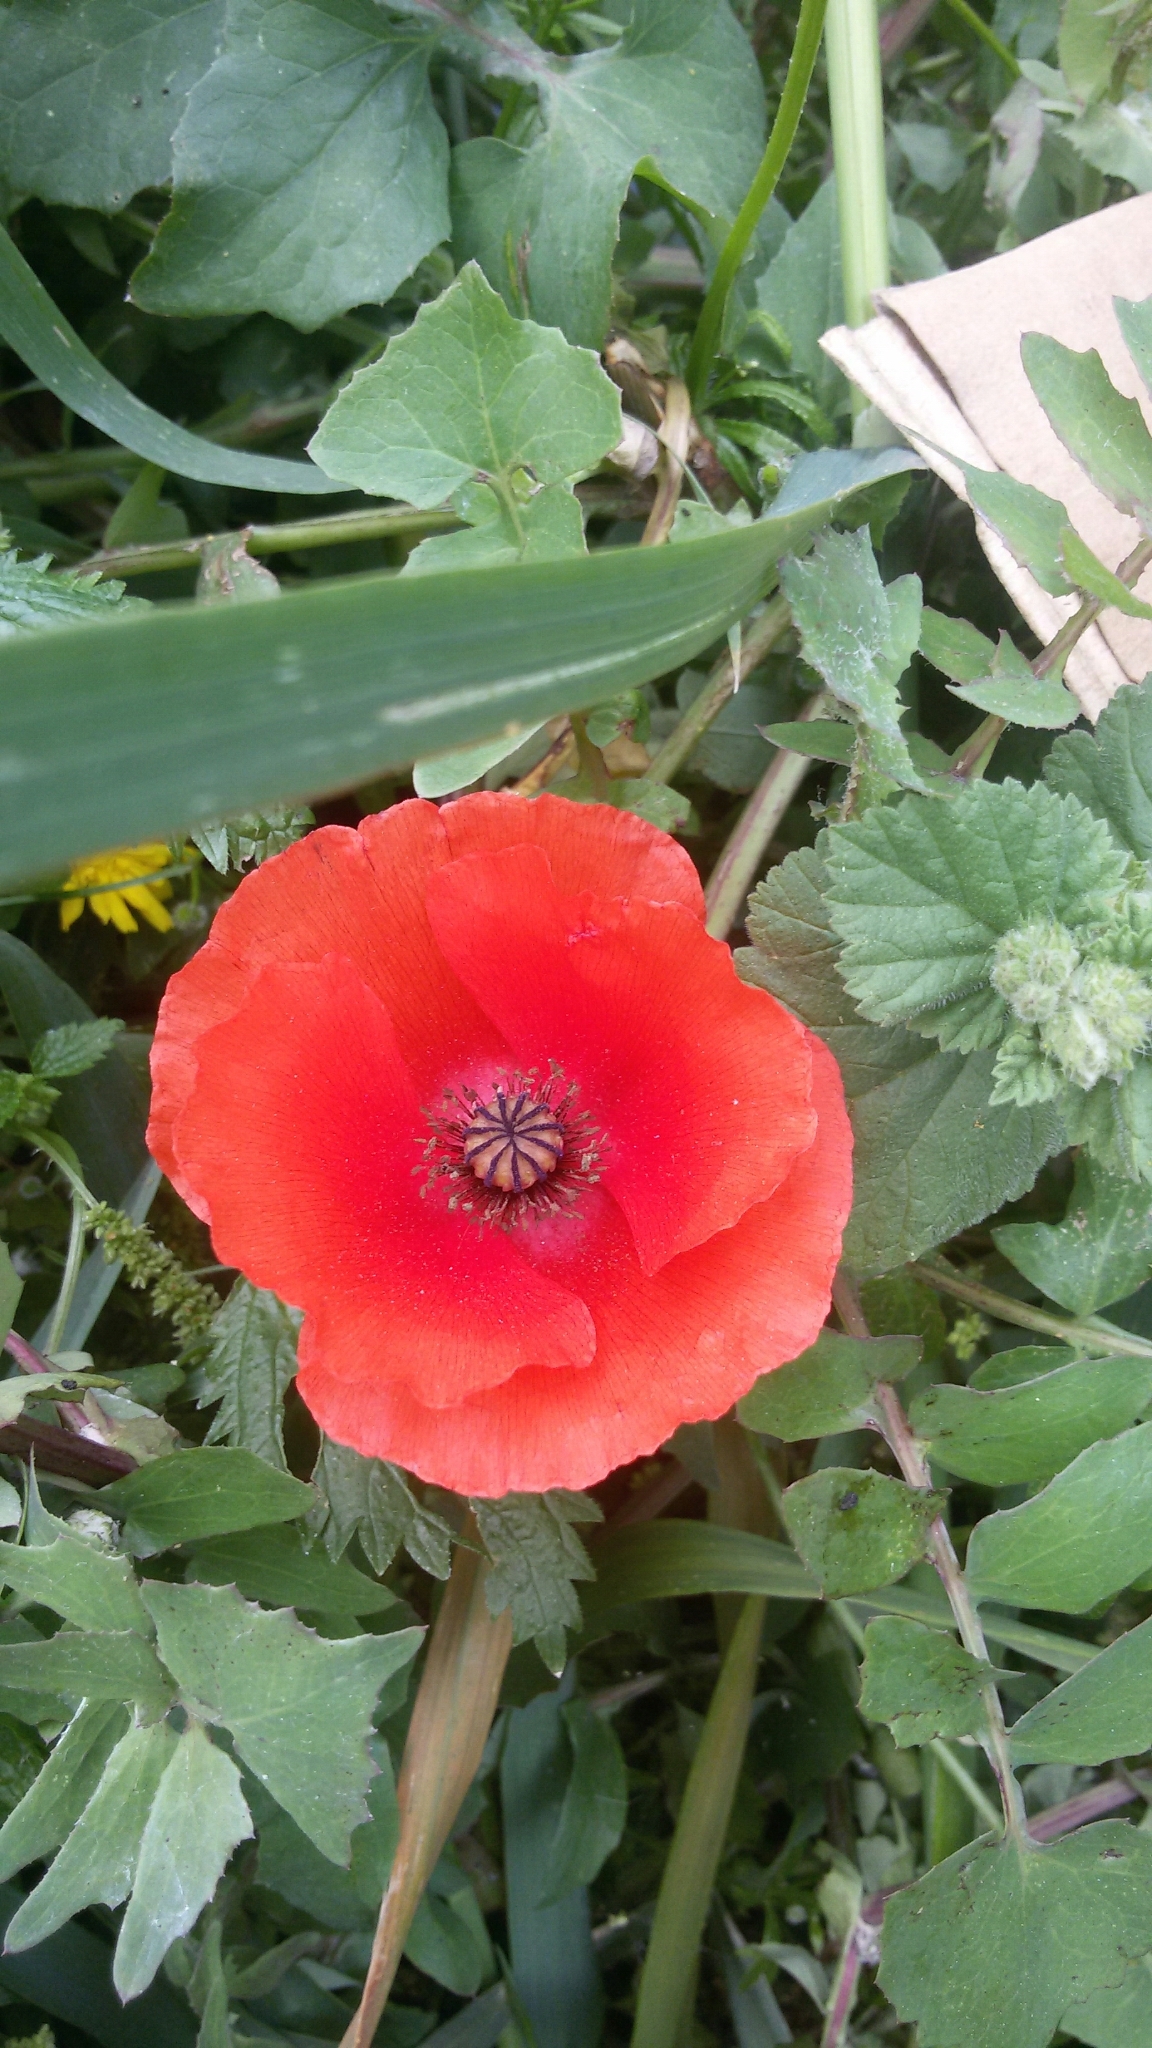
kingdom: Plantae
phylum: Tracheophyta
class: Magnoliopsida
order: Ranunculales
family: Papaveraceae
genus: Papaver
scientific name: Papaver rhoeas
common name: Corn poppy
